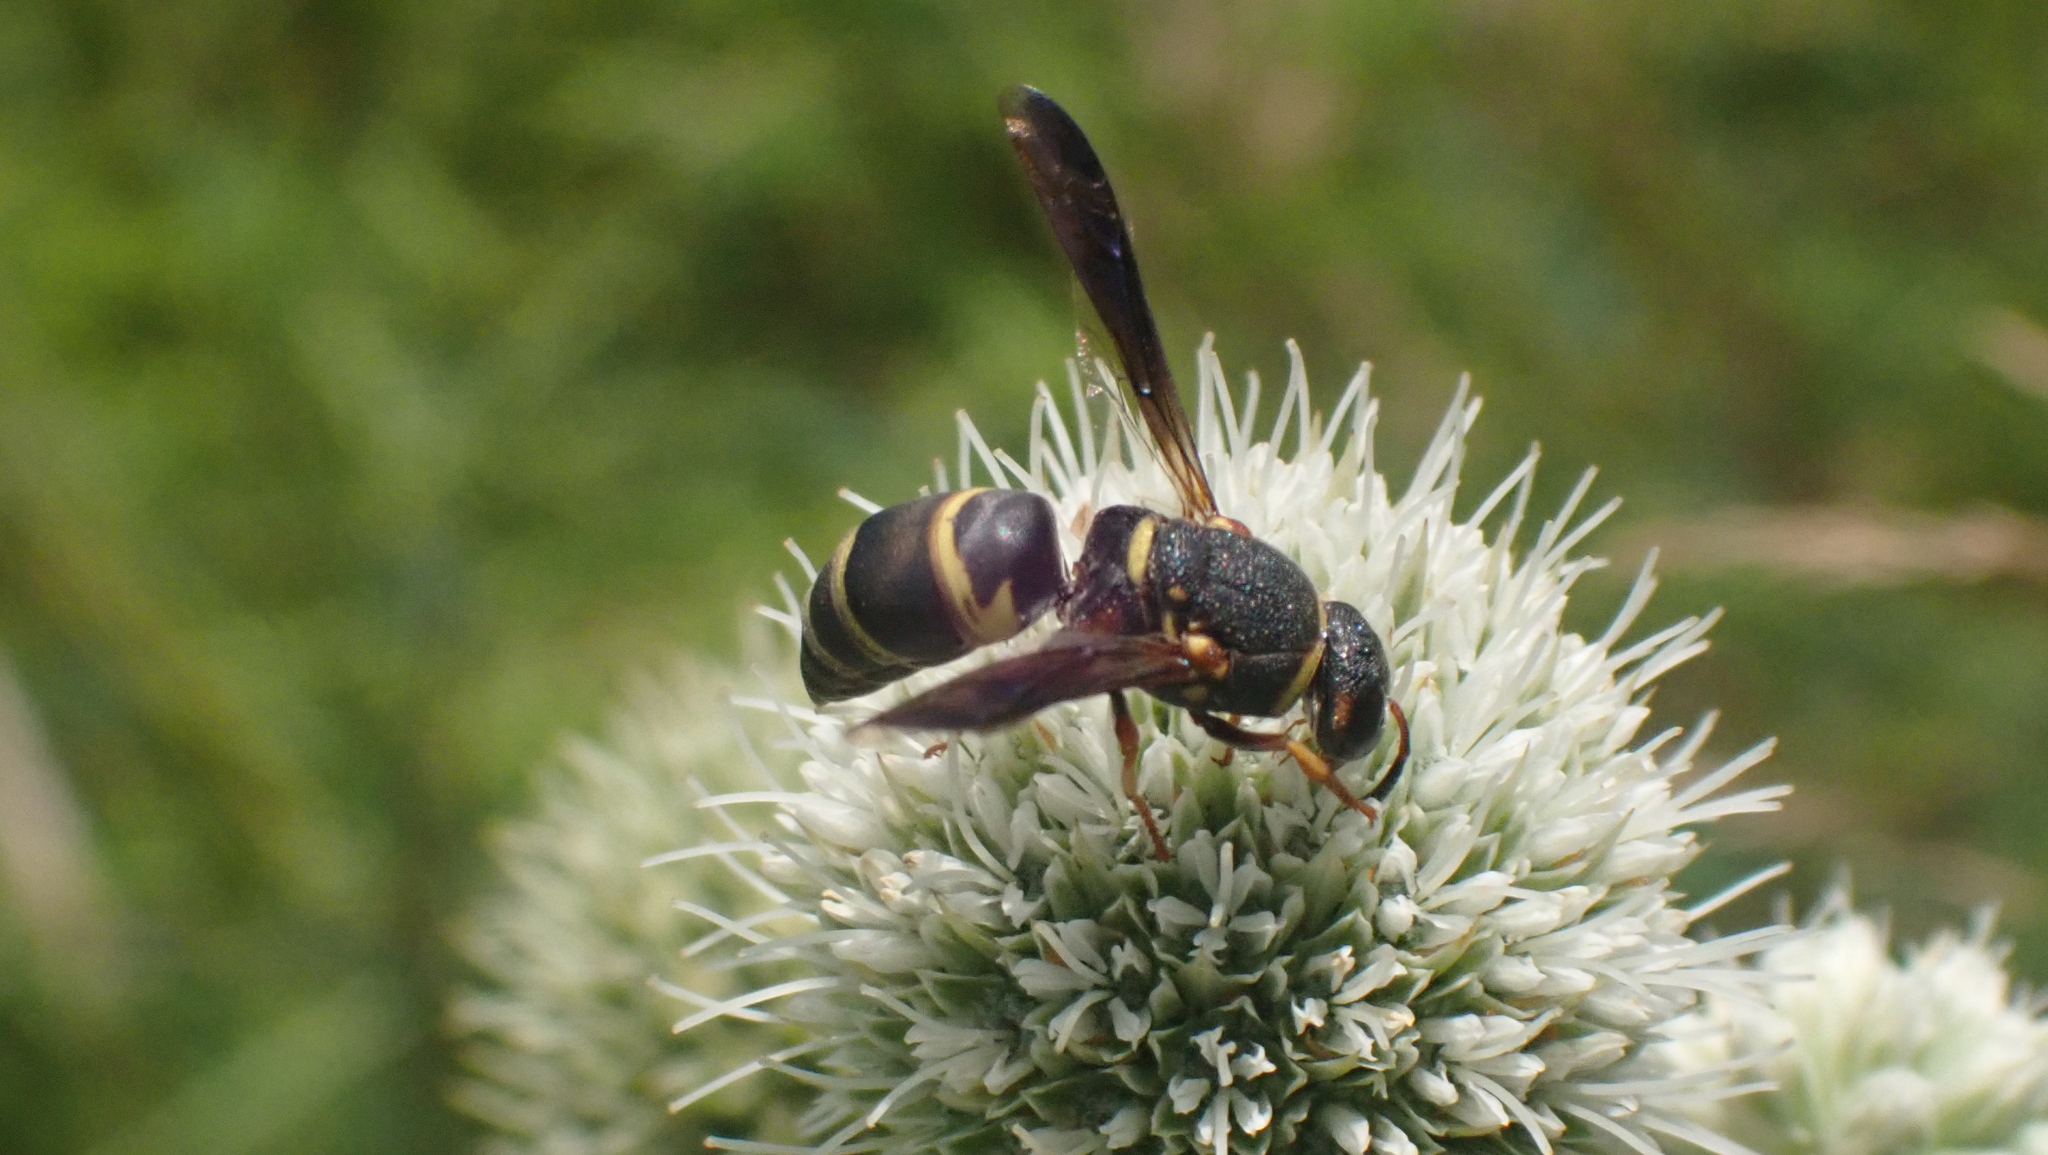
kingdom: Animalia
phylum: Arthropoda
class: Insecta
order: Hymenoptera
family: Eumenidae
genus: Euodynerus
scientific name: Euodynerus hidalgo
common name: Wasp
